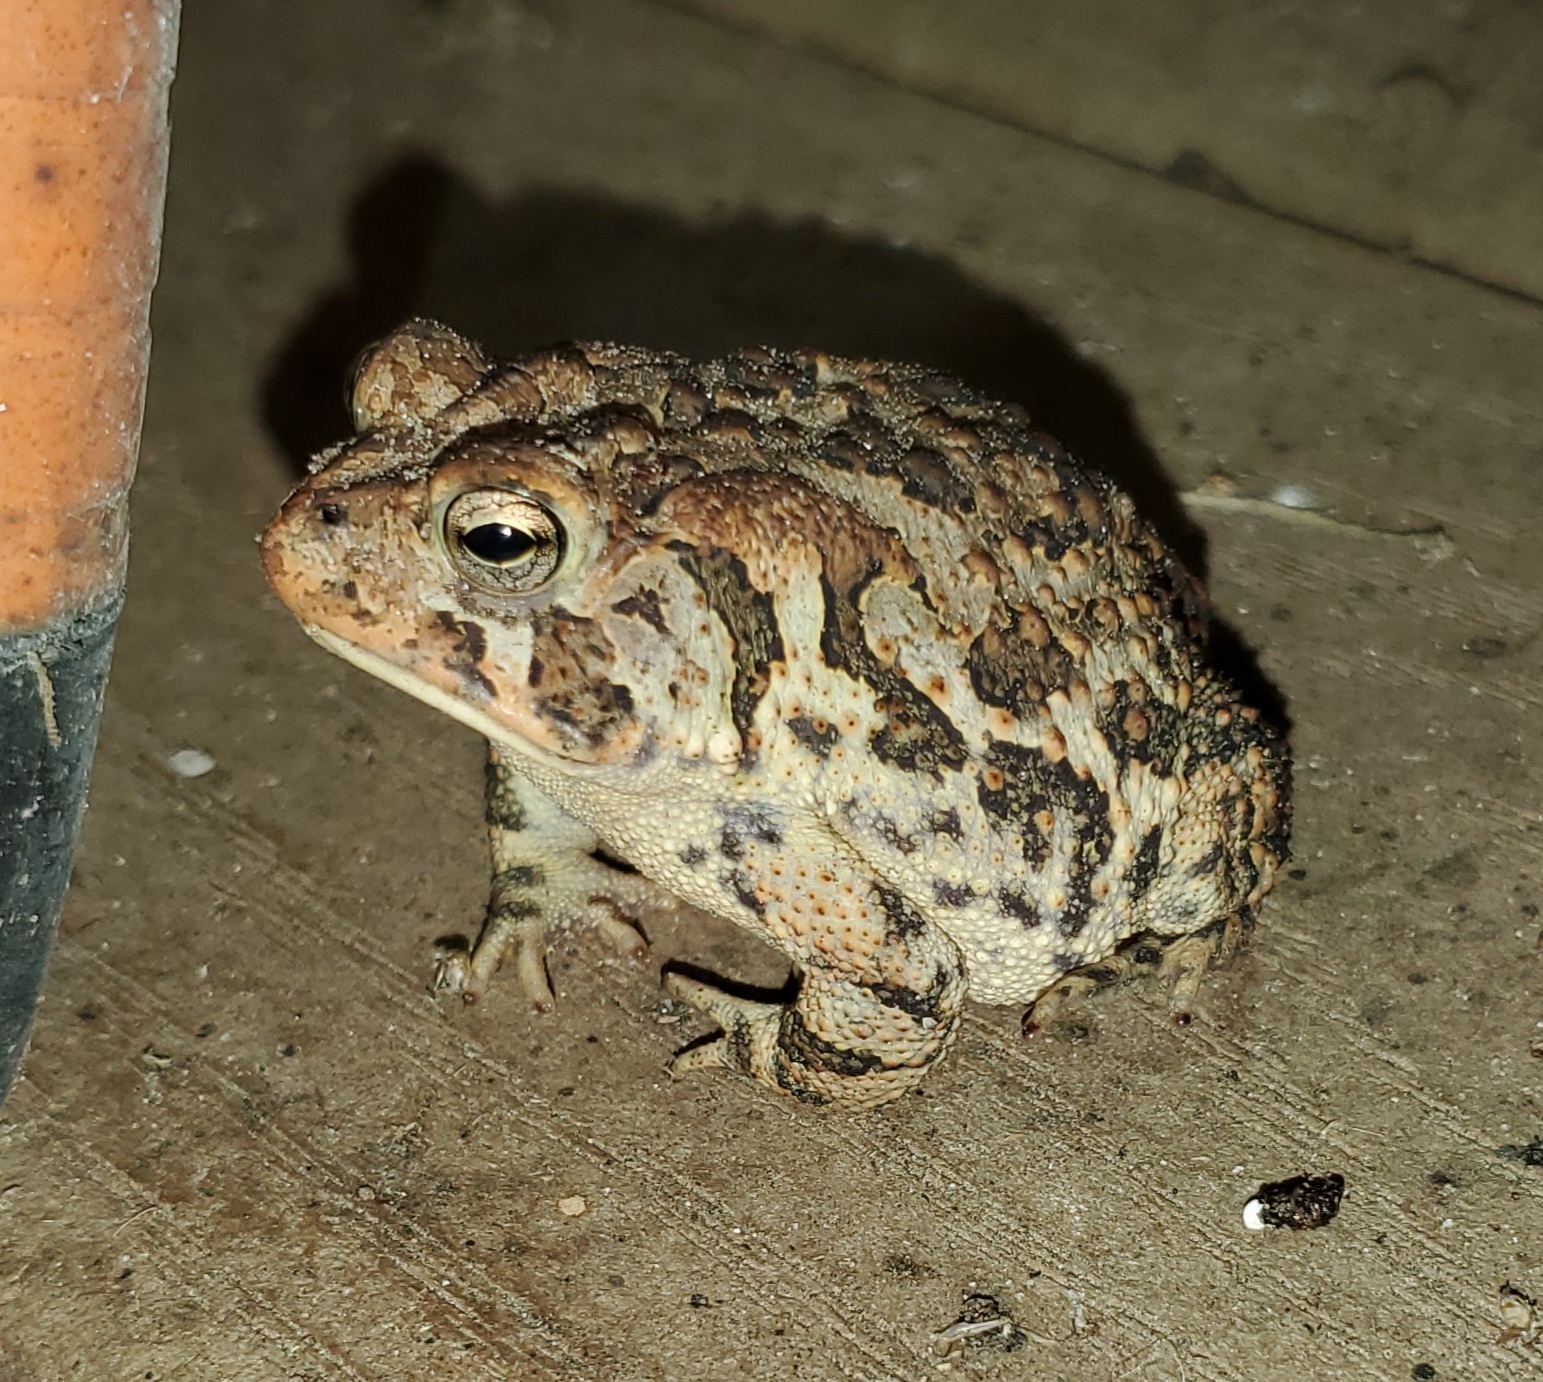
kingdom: Animalia
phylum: Chordata
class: Amphibia
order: Anura
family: Bufonidae
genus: Anaxyrus
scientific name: Anaxyrus terrestris
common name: Southern toad
